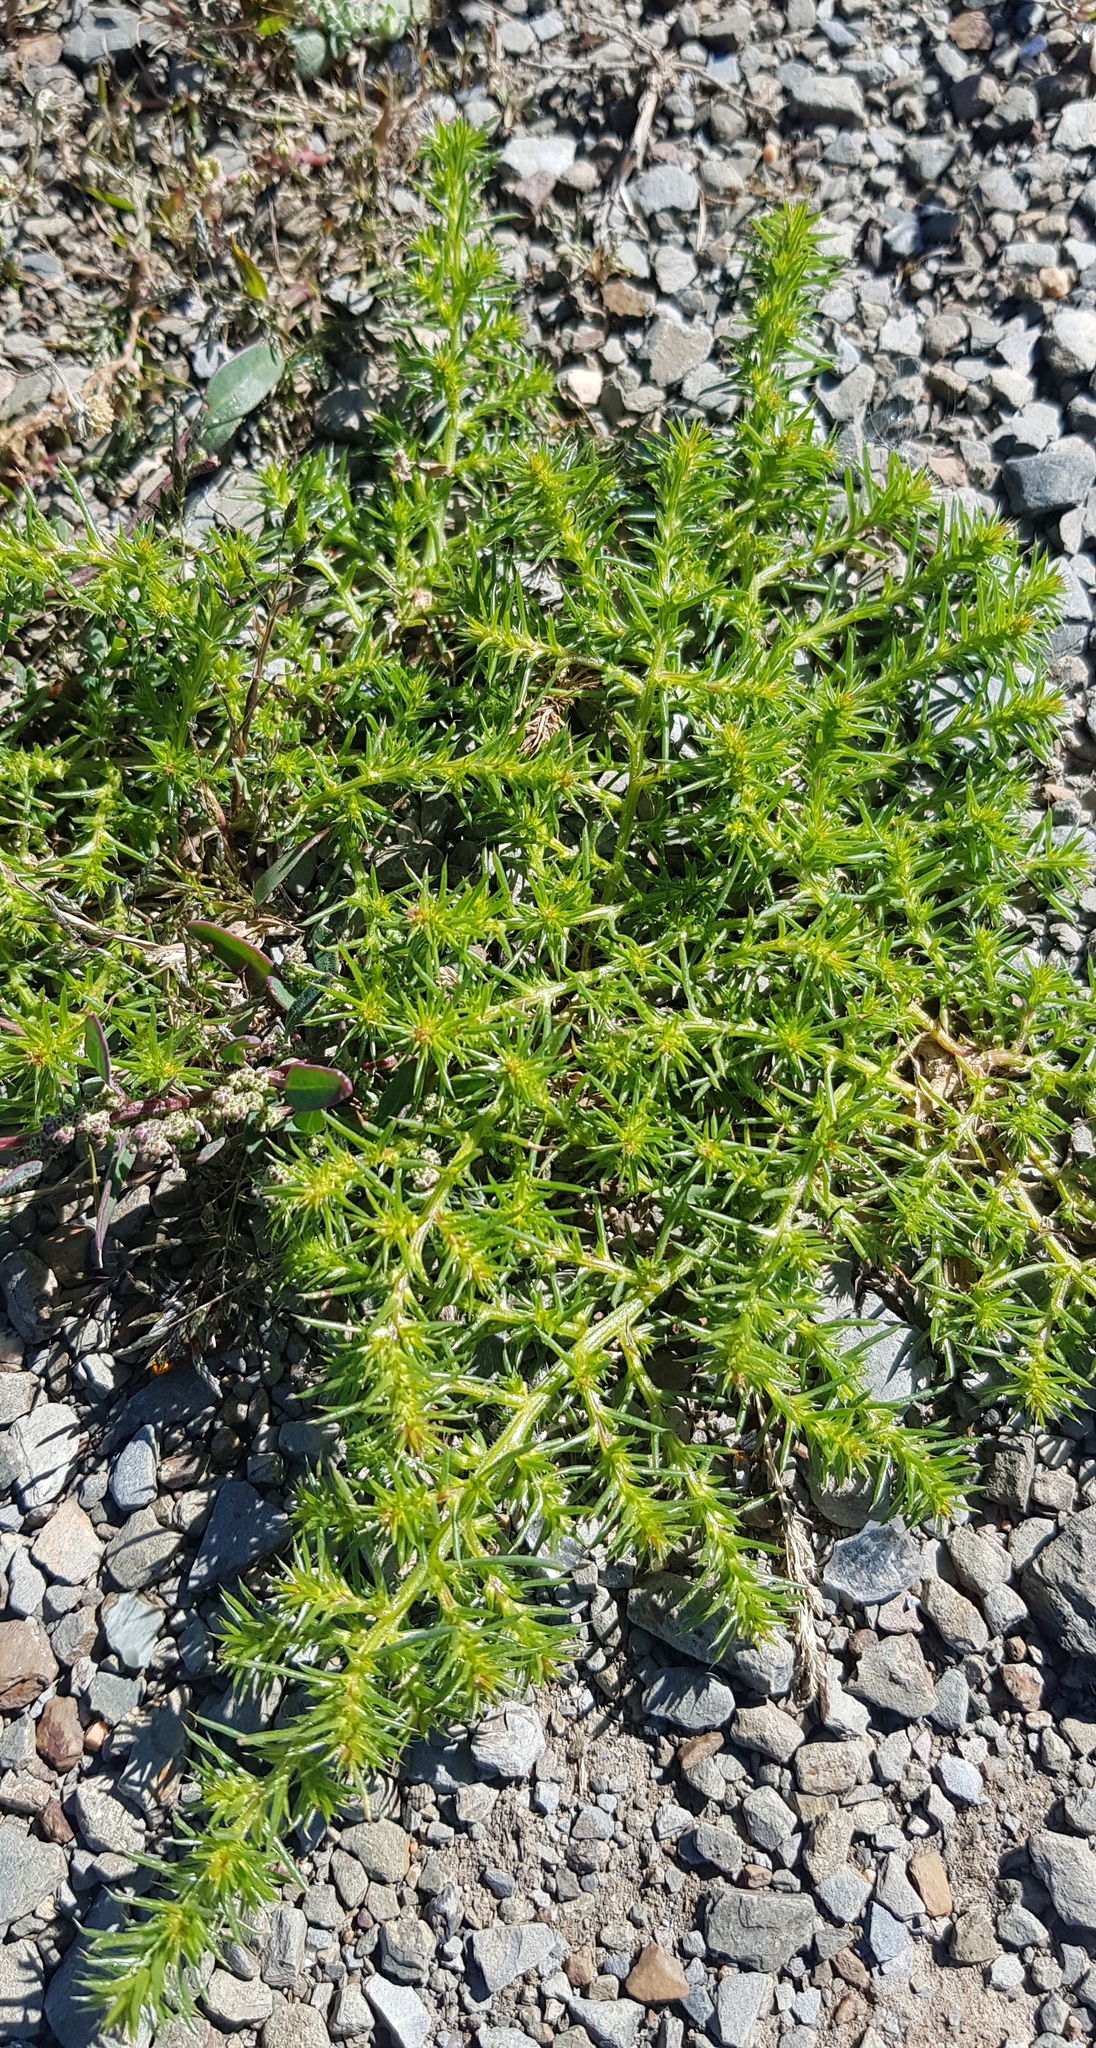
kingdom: Plantae
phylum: Tracheophyta
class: Magnoliopsida
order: Caryophyllales
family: Amaranthaceae
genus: Salsola
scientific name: Salsola collina
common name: Tumbleweed
